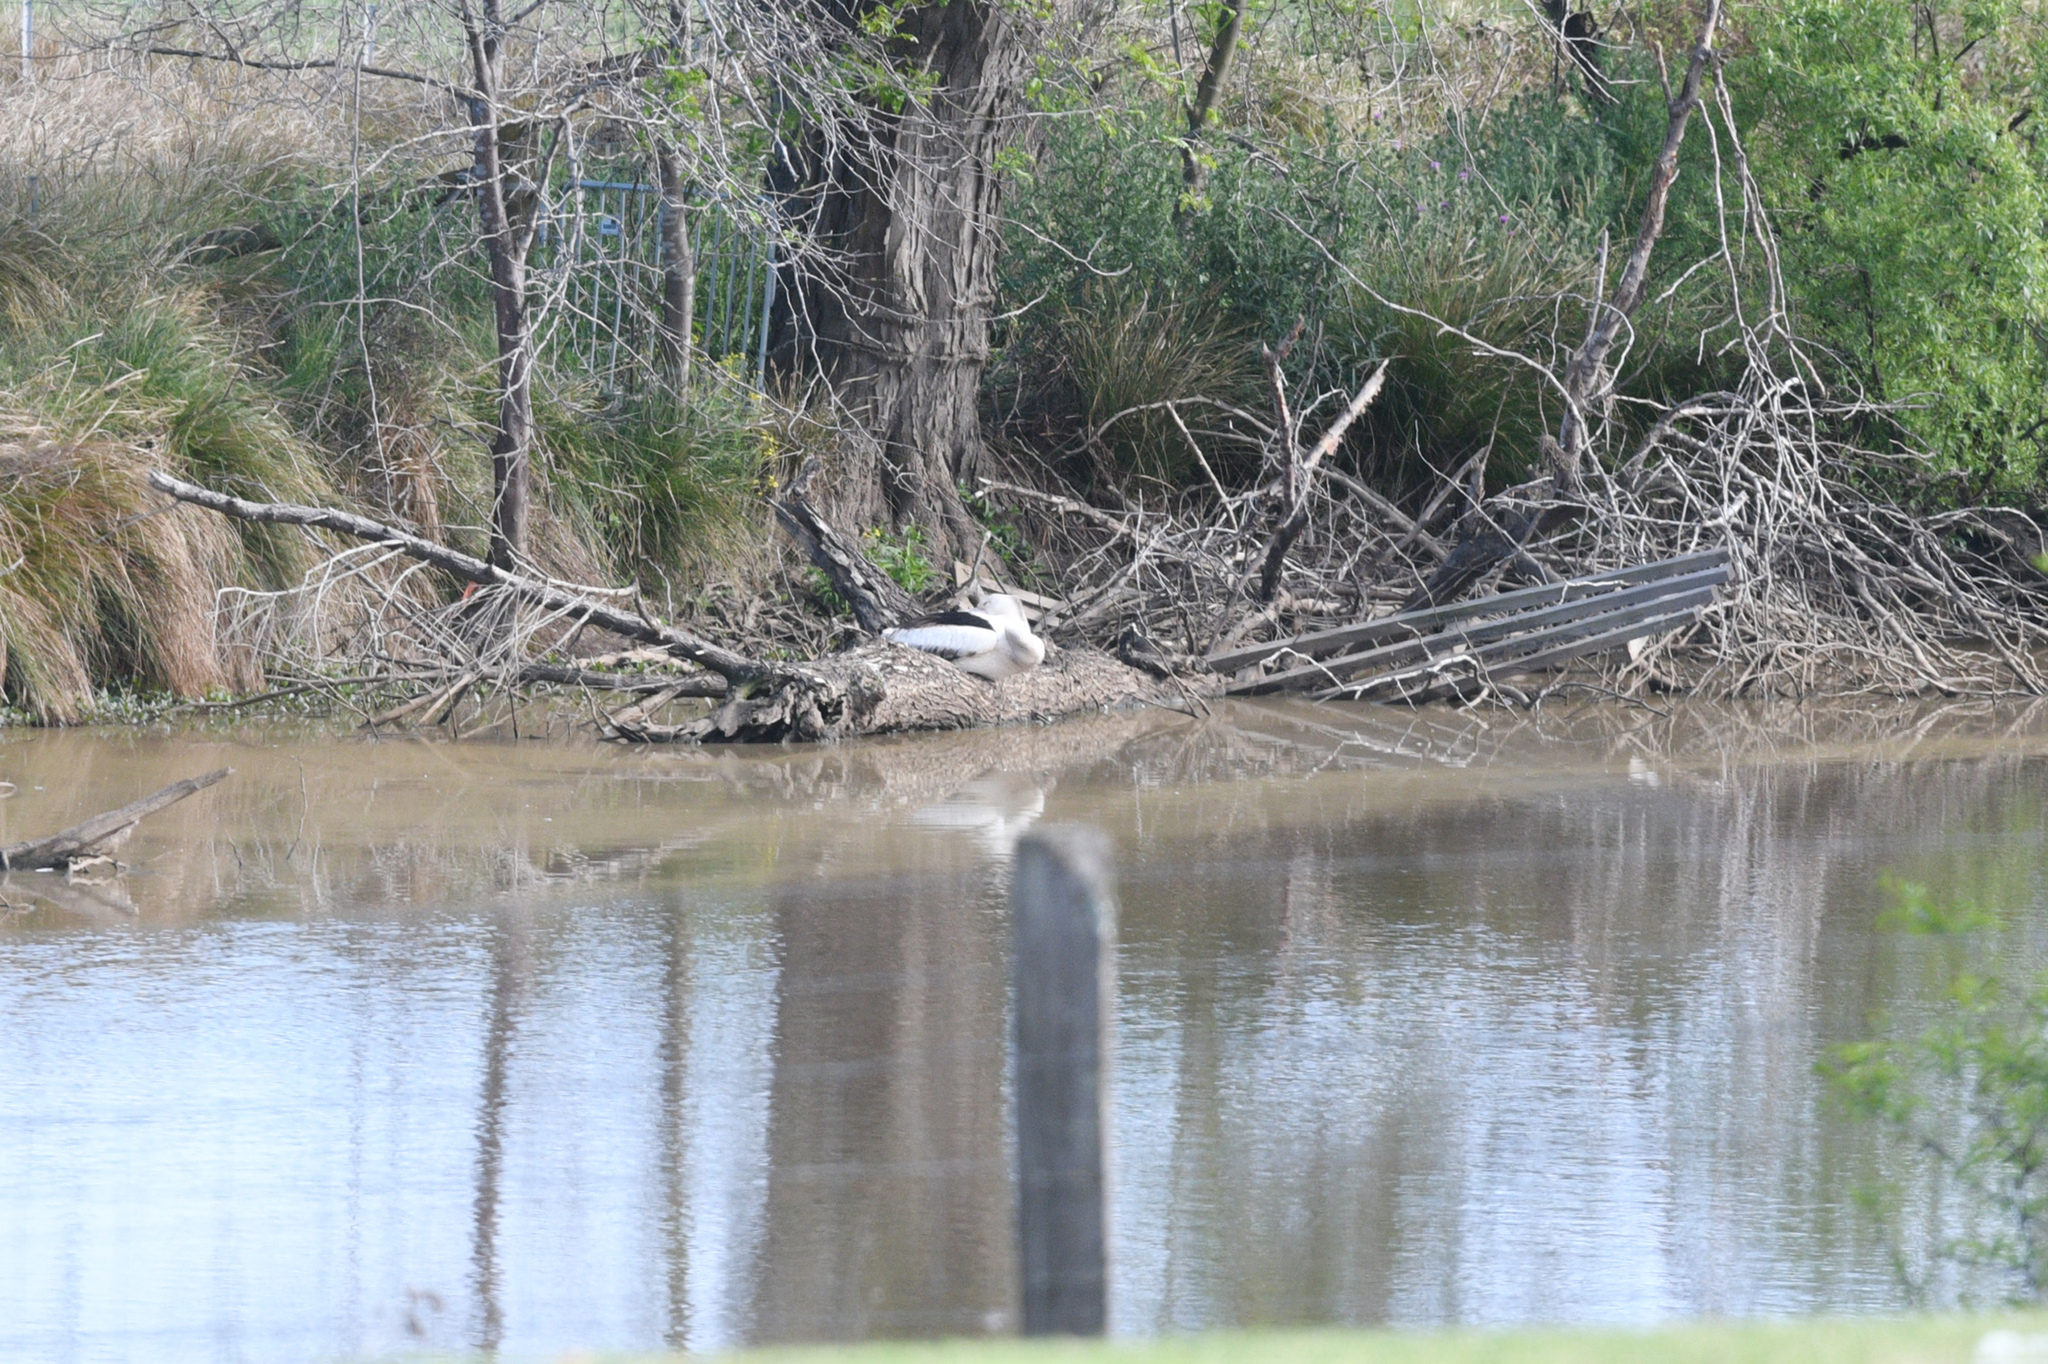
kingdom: Animalia
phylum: Chordata
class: Aves
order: Pelecaniformes
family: Pelecanidae
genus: Pelecanus
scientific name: Pelecanus conspicillatus
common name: Australian pelican
